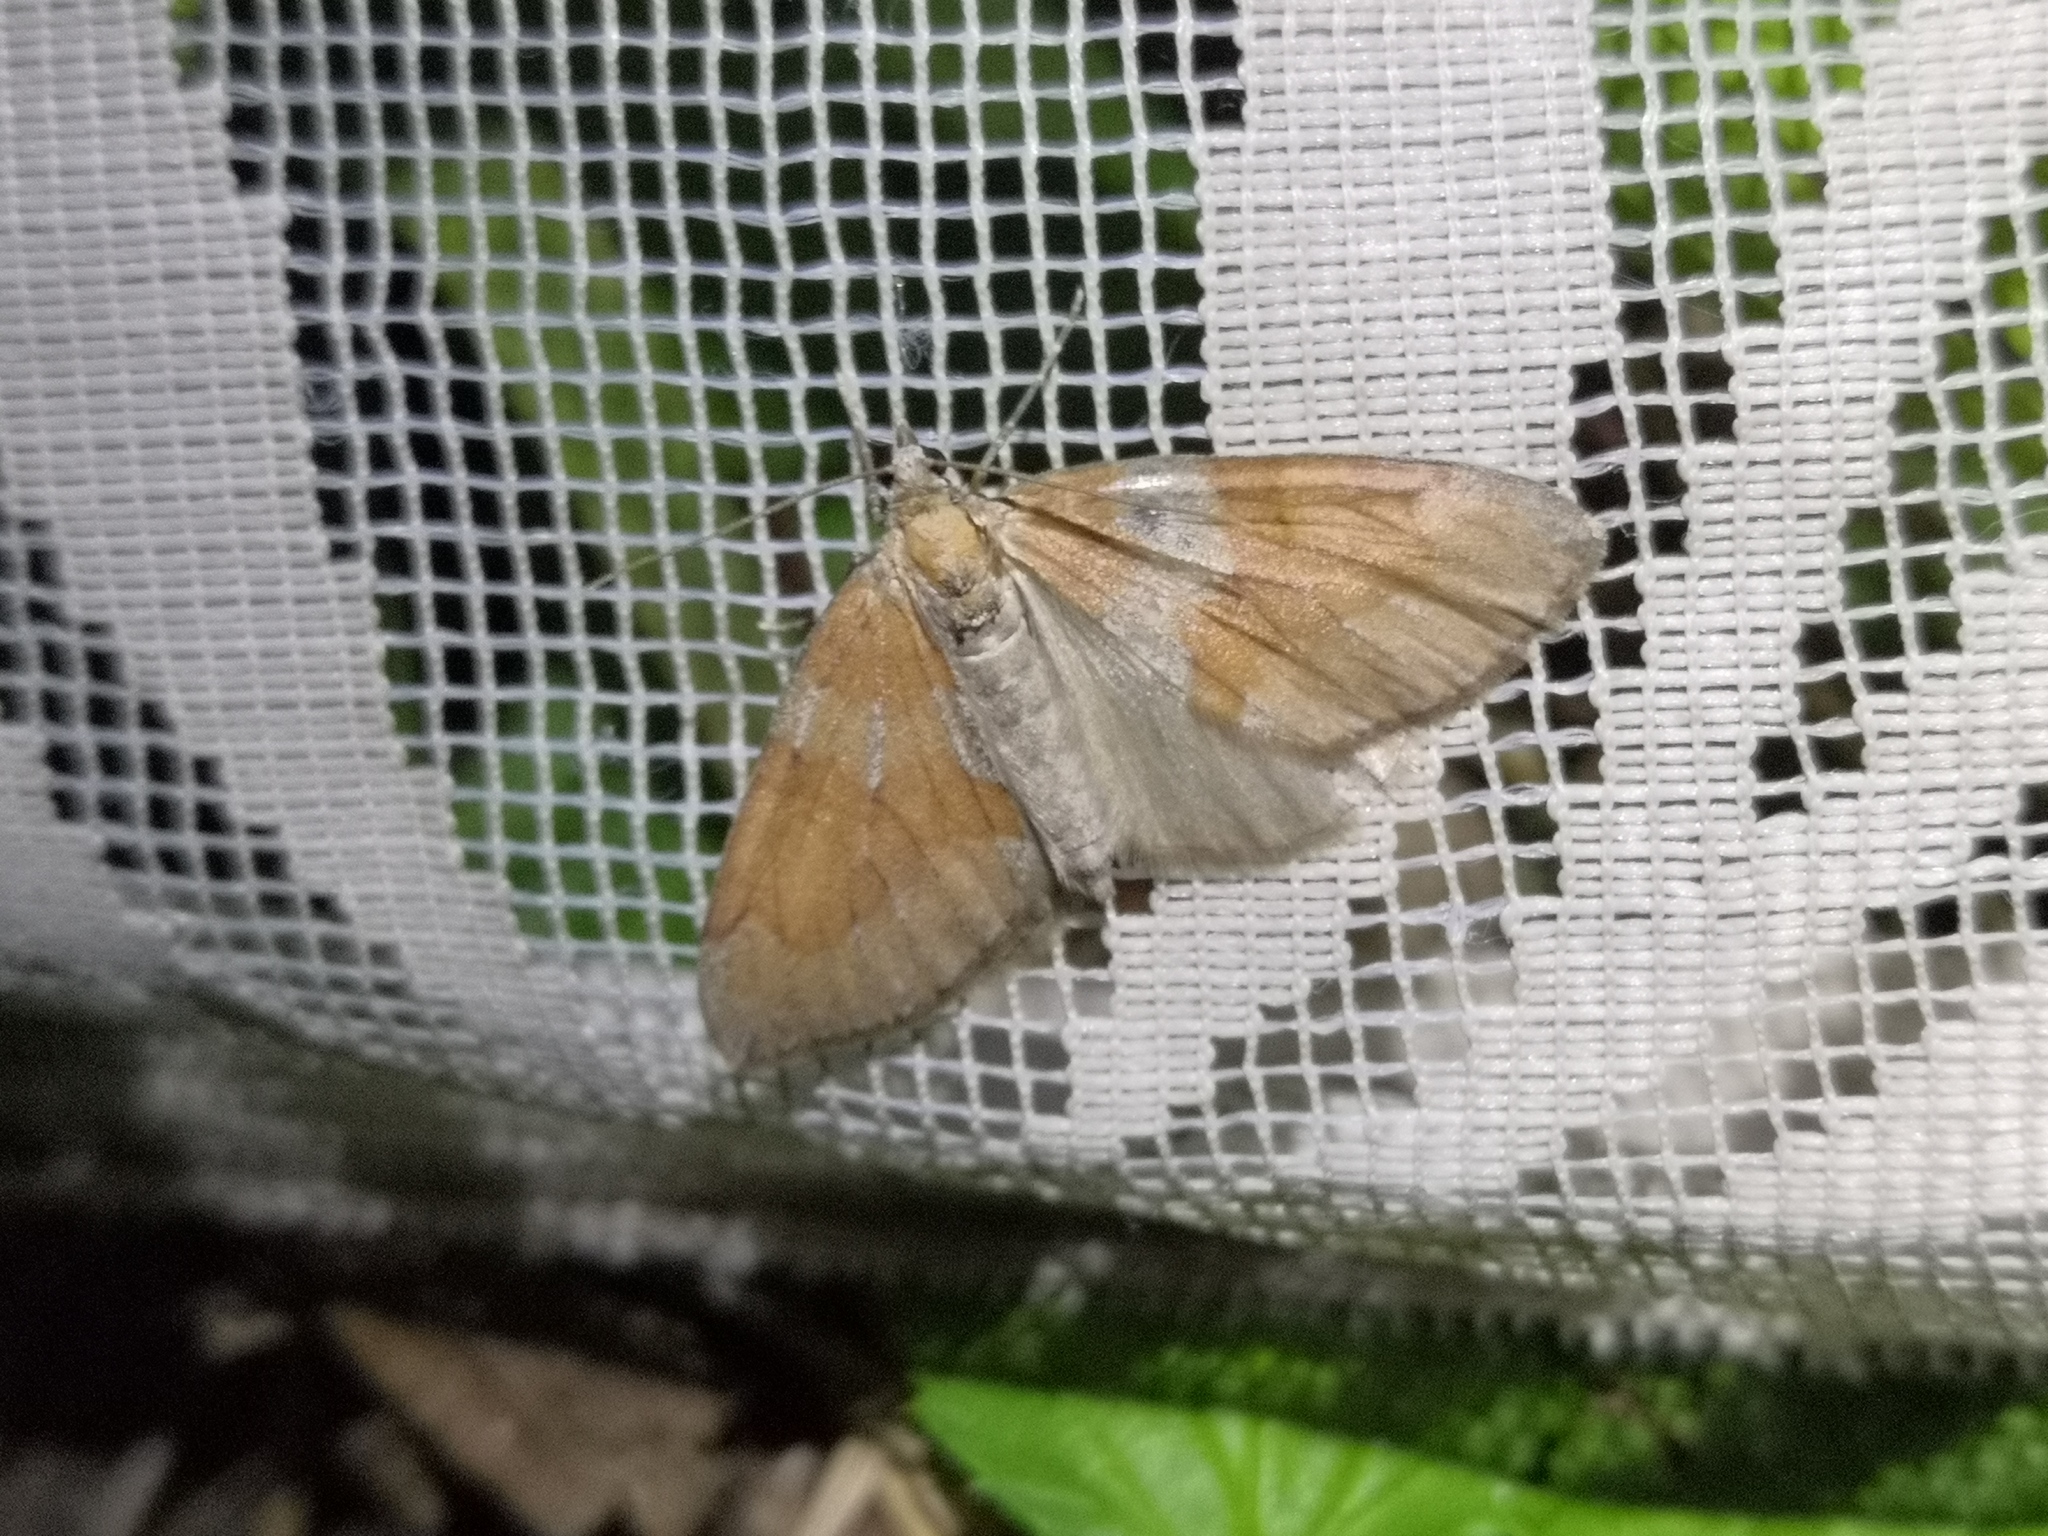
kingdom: Animalia
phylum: Arthropoda
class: Insecta
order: Lepidoptera
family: Geometridae
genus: Thera
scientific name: Thera obeliscata
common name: Grey pine carpet
